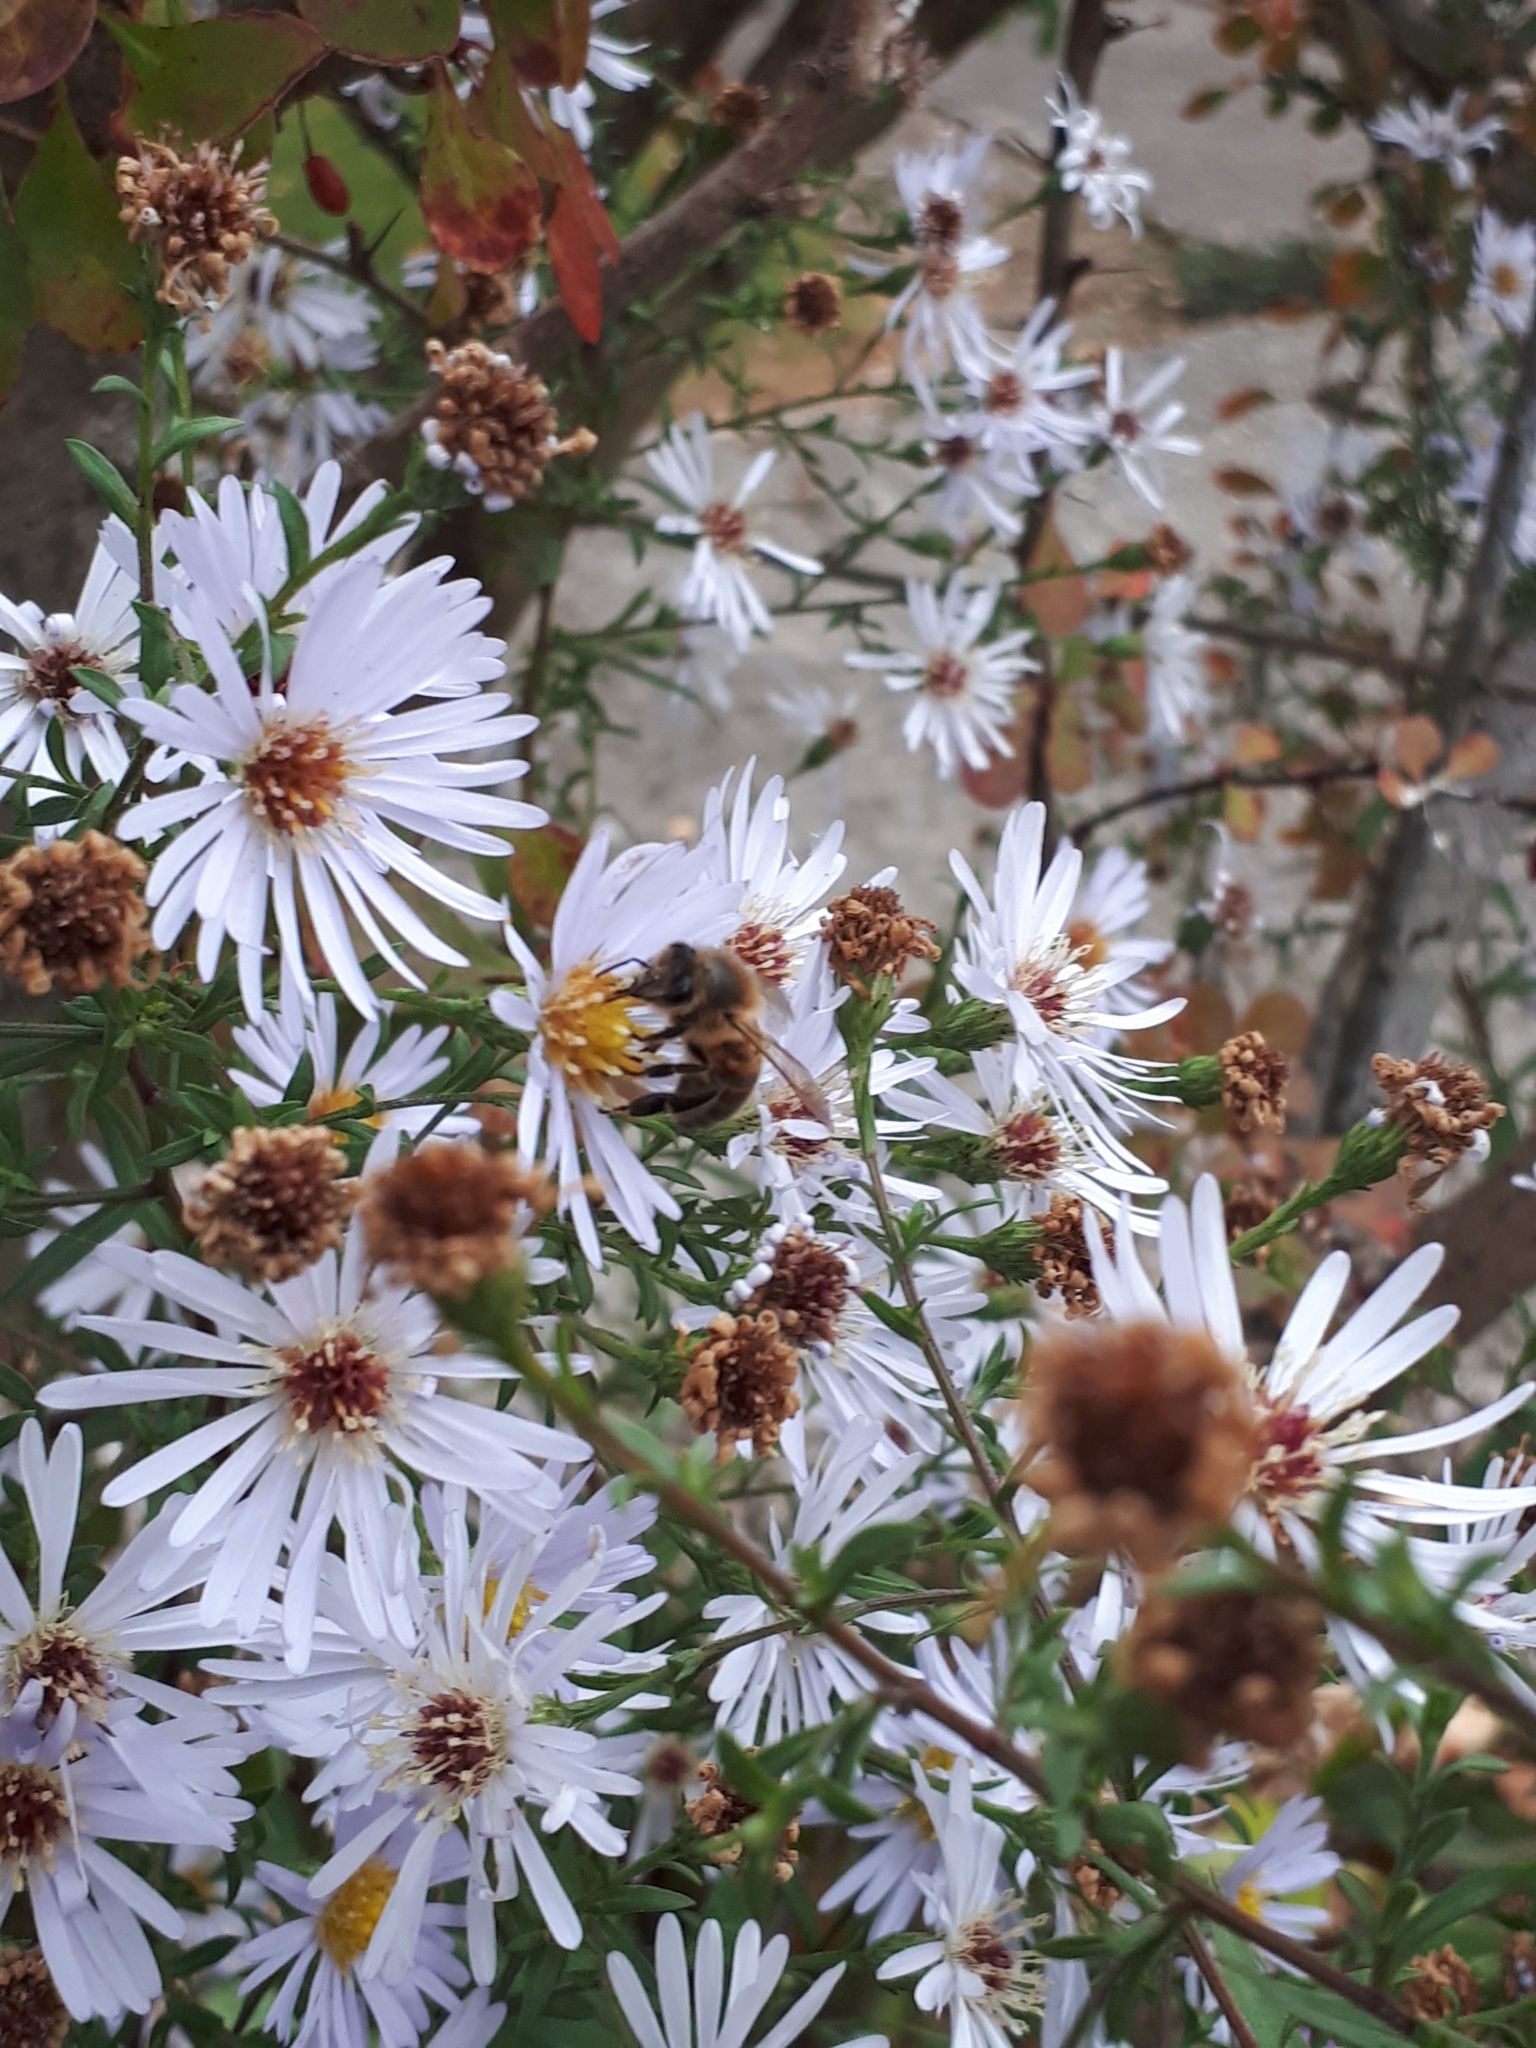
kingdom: Animalia
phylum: Arthropoda
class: Insecta
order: Hymenoptera
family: Apidae
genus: Apis
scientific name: Apis mellifera
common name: Honey bee
